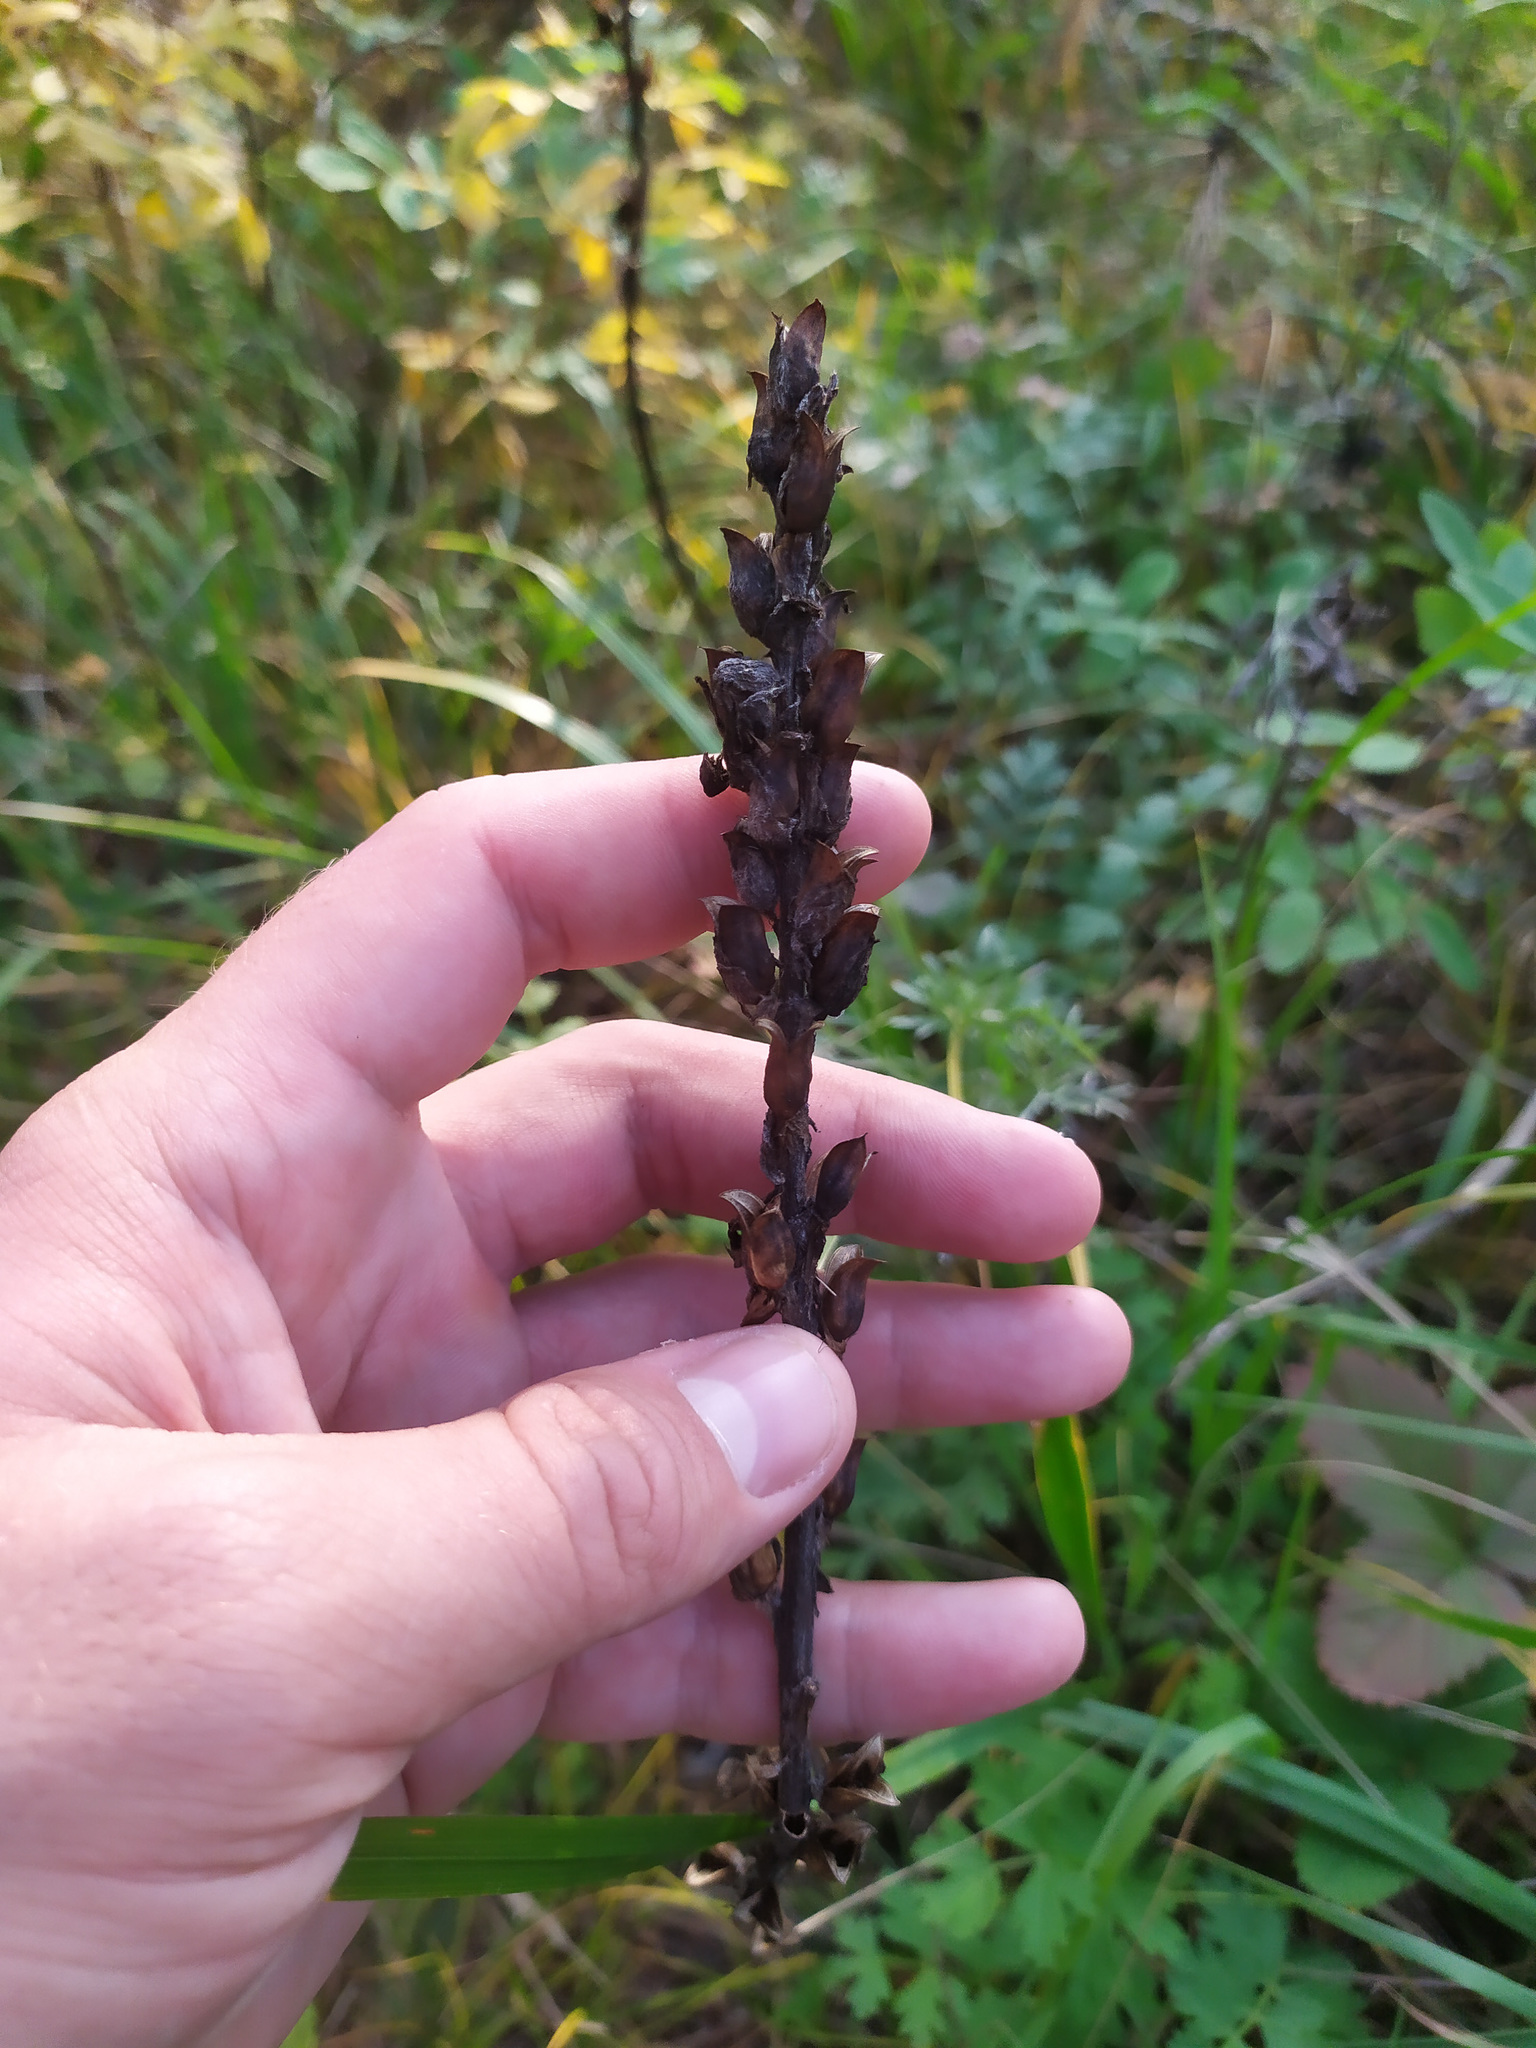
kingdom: Plantae
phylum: Tracheophyta
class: Magnoliopsida
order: Lamiales
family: Orobanchaceae
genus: Pedicularis
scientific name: Pedicularis uralensis
